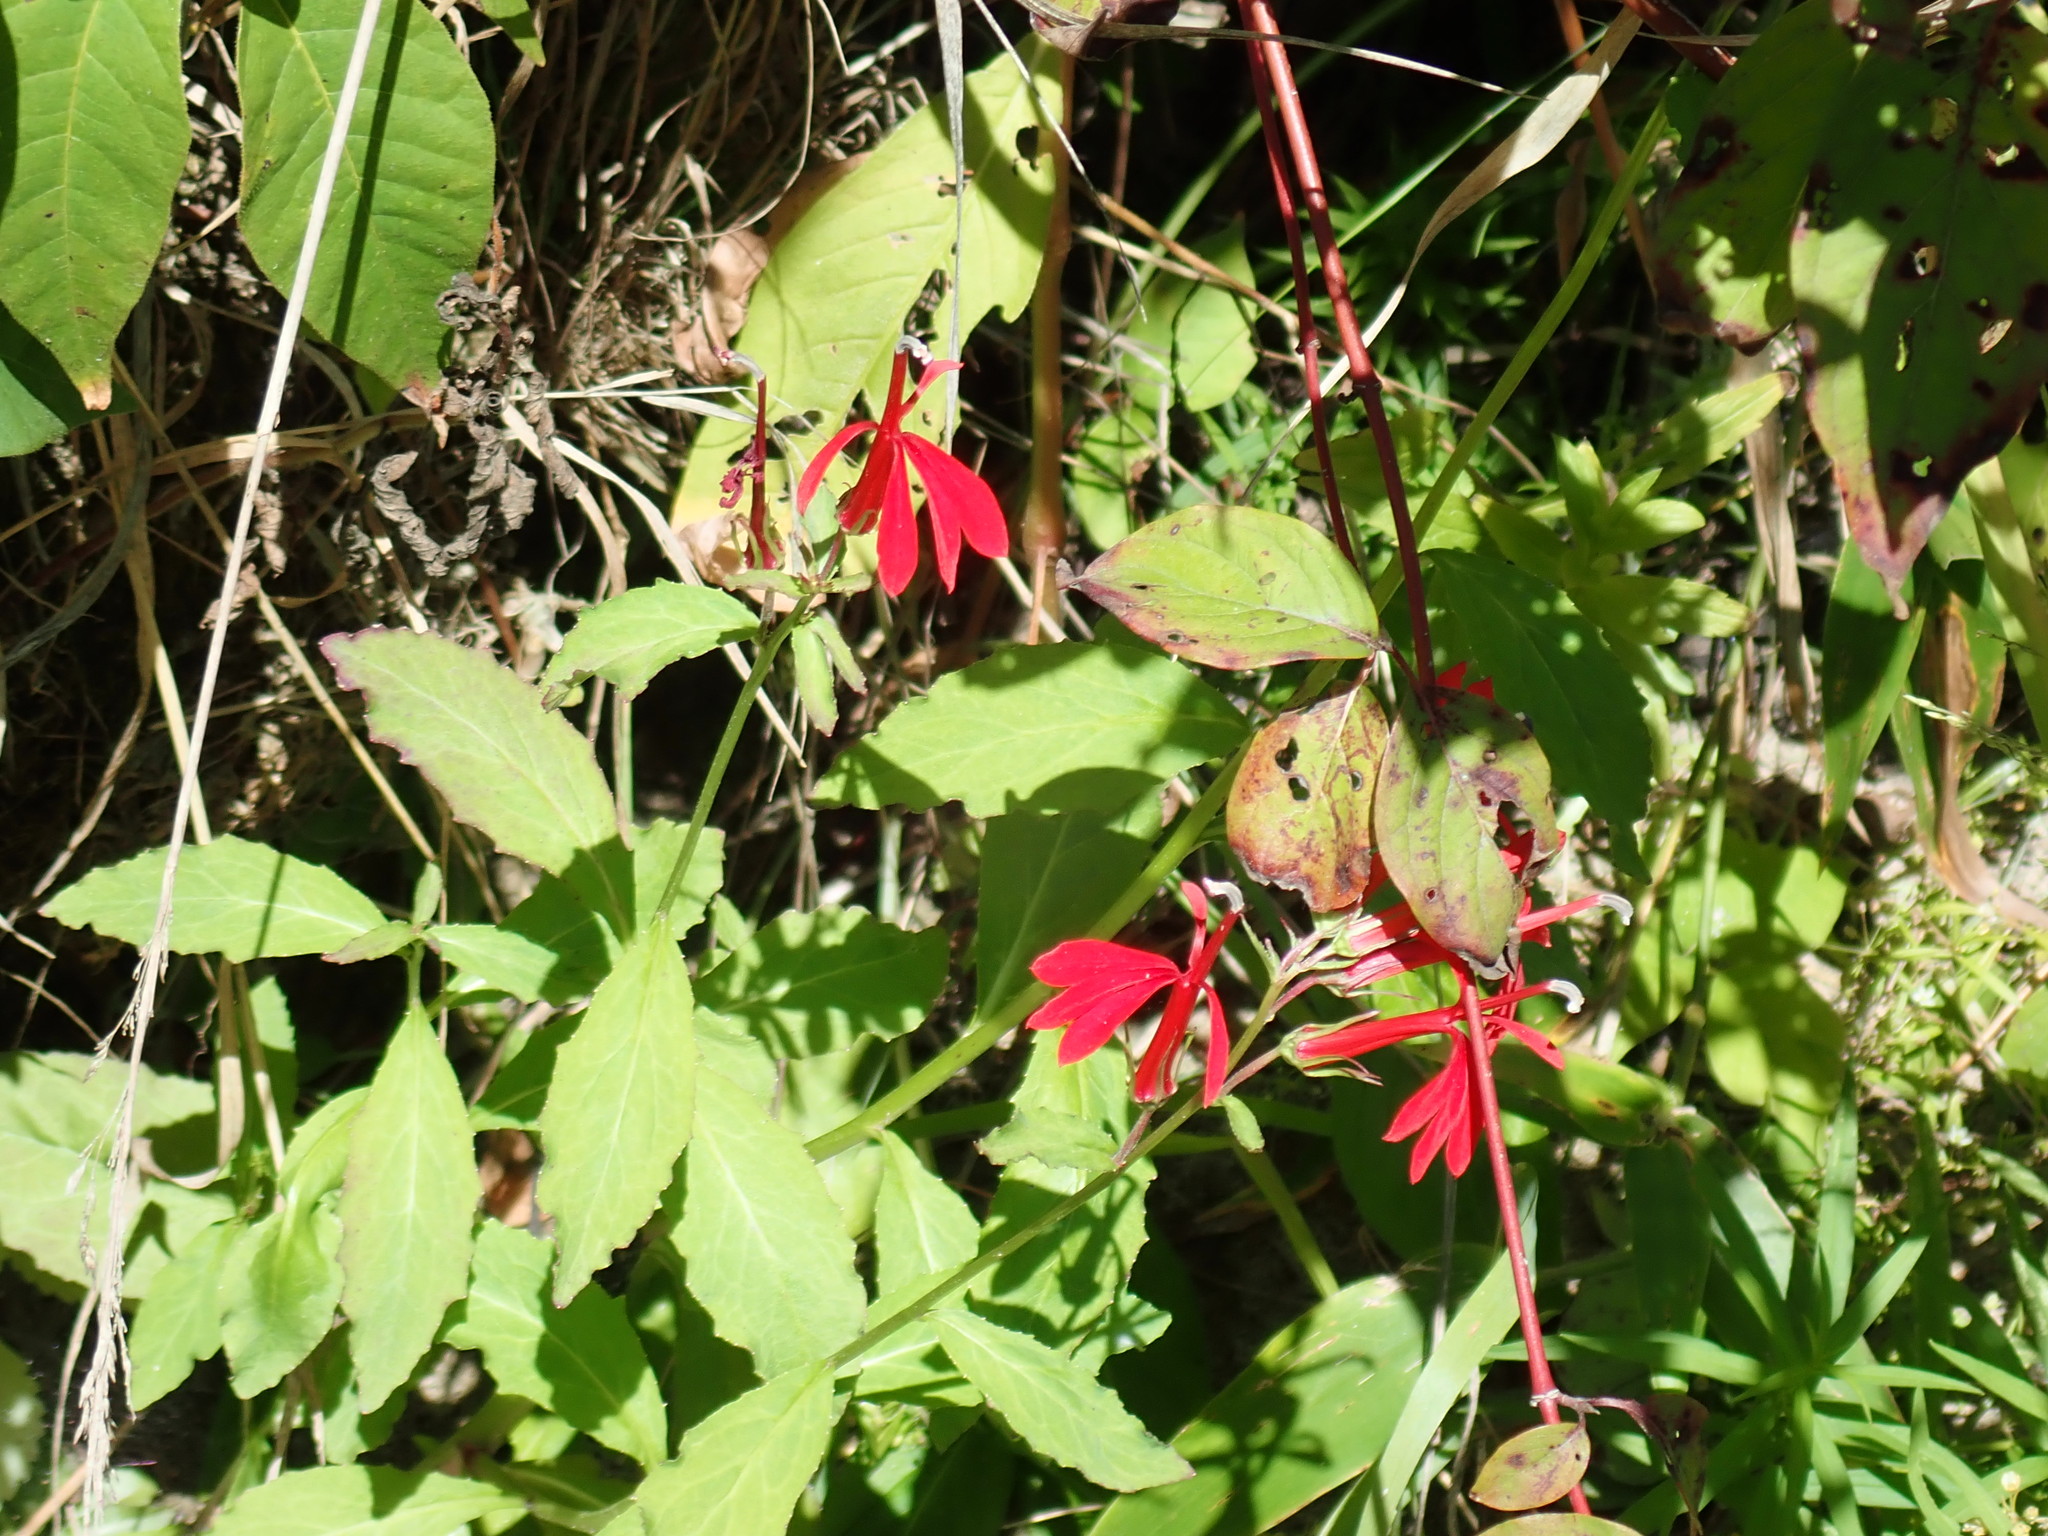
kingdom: Plantae
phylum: Tracheophyta
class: Magnoliopsida
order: Asterales
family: Campanulaceae
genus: Lobelia
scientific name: Lobelia cardinalis
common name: Cardinal flower
